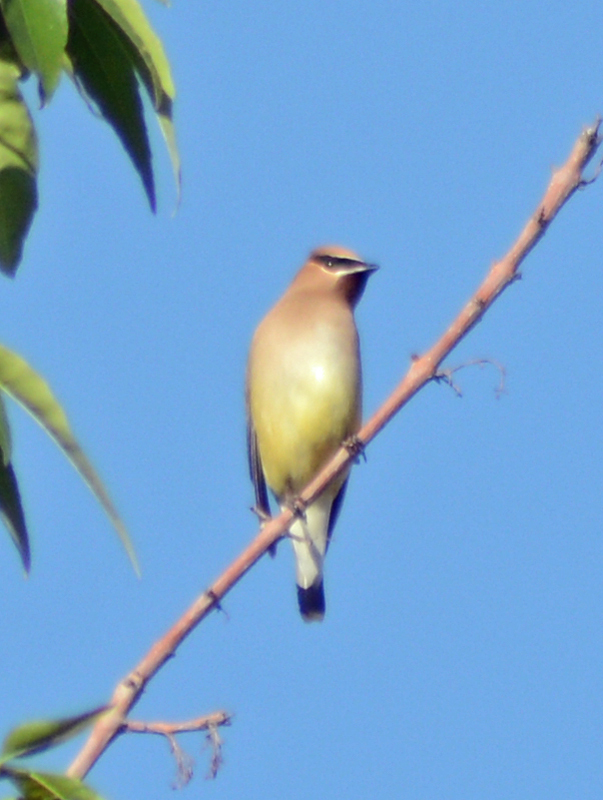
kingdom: Animalia
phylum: Chordata
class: Aves
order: Passeriformes
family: Bombycillidae
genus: Bombycilla
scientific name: Bombycilla cedrorum
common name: Cedar waxwing
